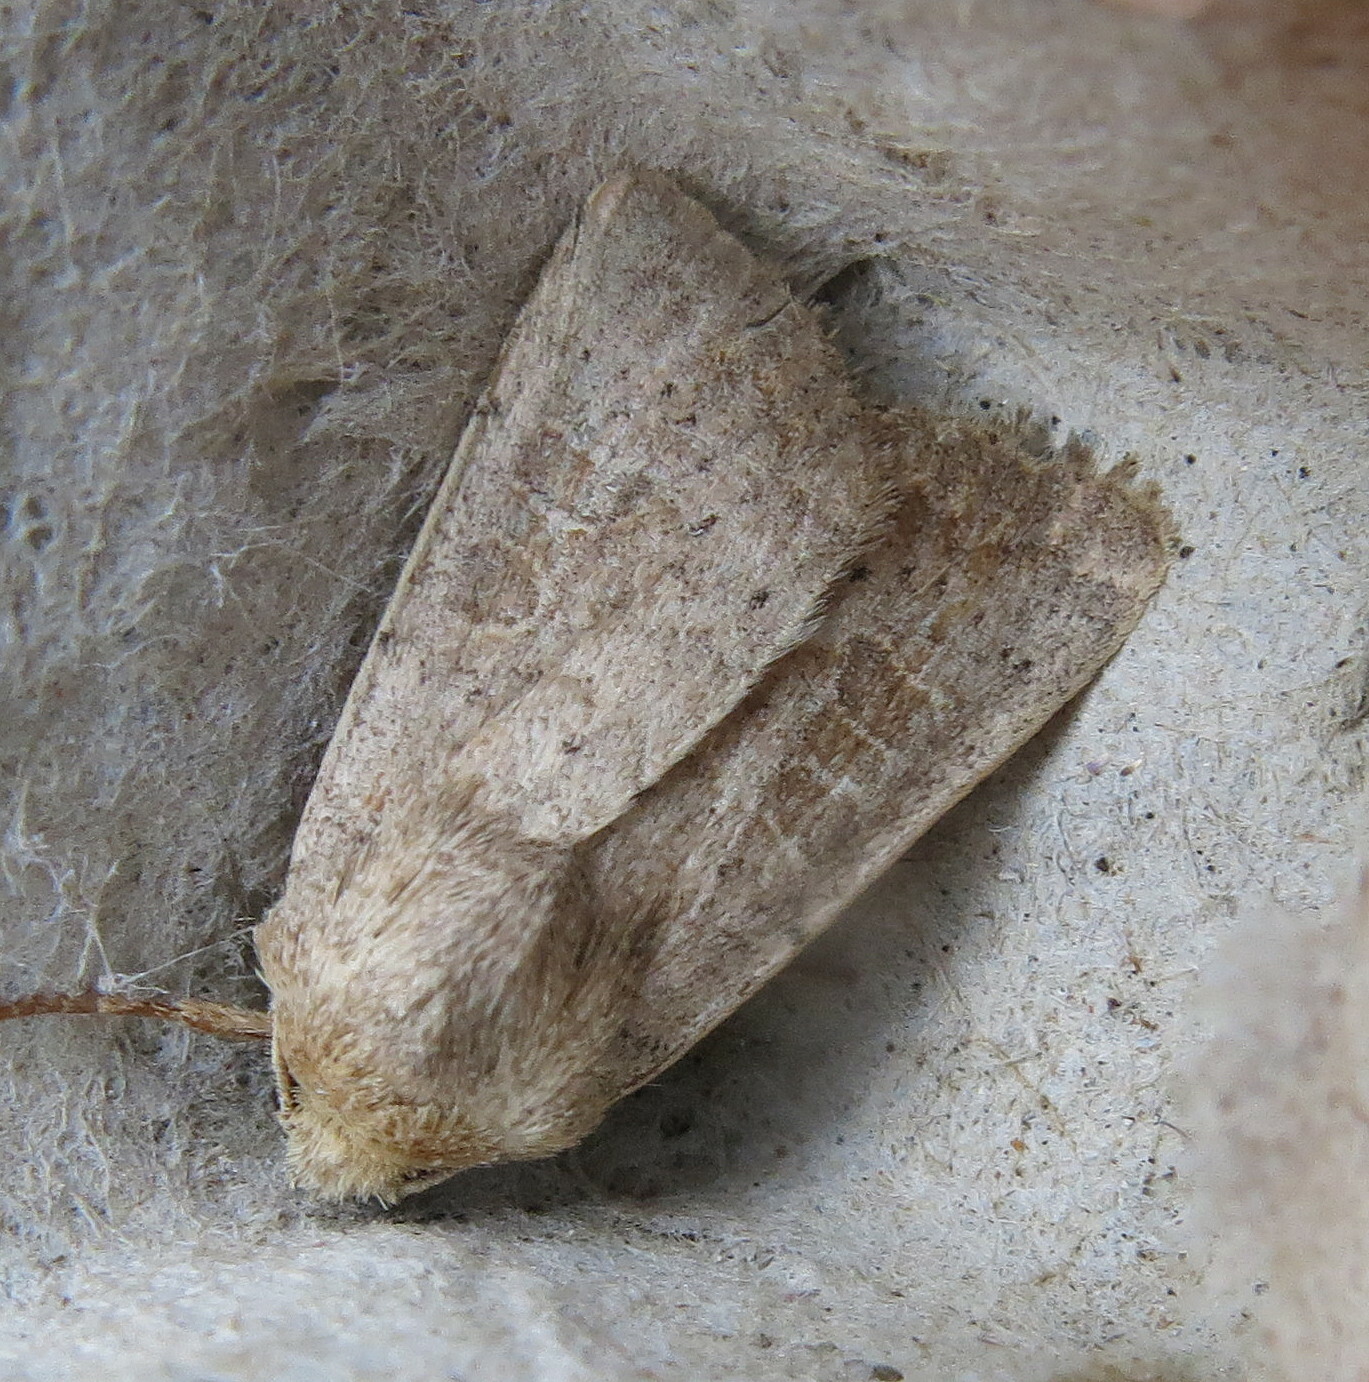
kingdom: Animalia
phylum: Arthropoda
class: Insecta
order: Lepidoptera
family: Noctuidae
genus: Hoplodrina
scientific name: Hoplodrina ambigua
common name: Vine's rustic
